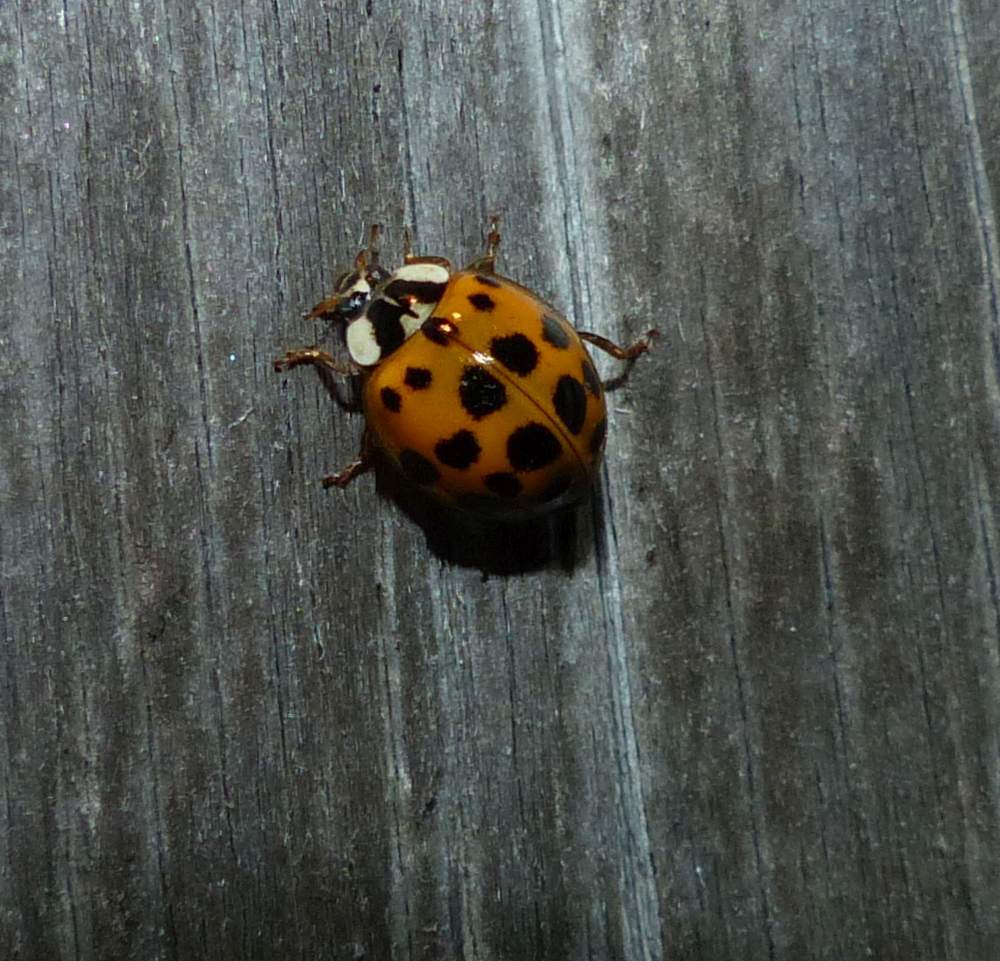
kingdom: Animalia
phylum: Arthropoda
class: Insecta
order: Coleoptera
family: Coccinellidae
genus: Harmonia
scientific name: Harmonia axyridis
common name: Harlequin ladybird
